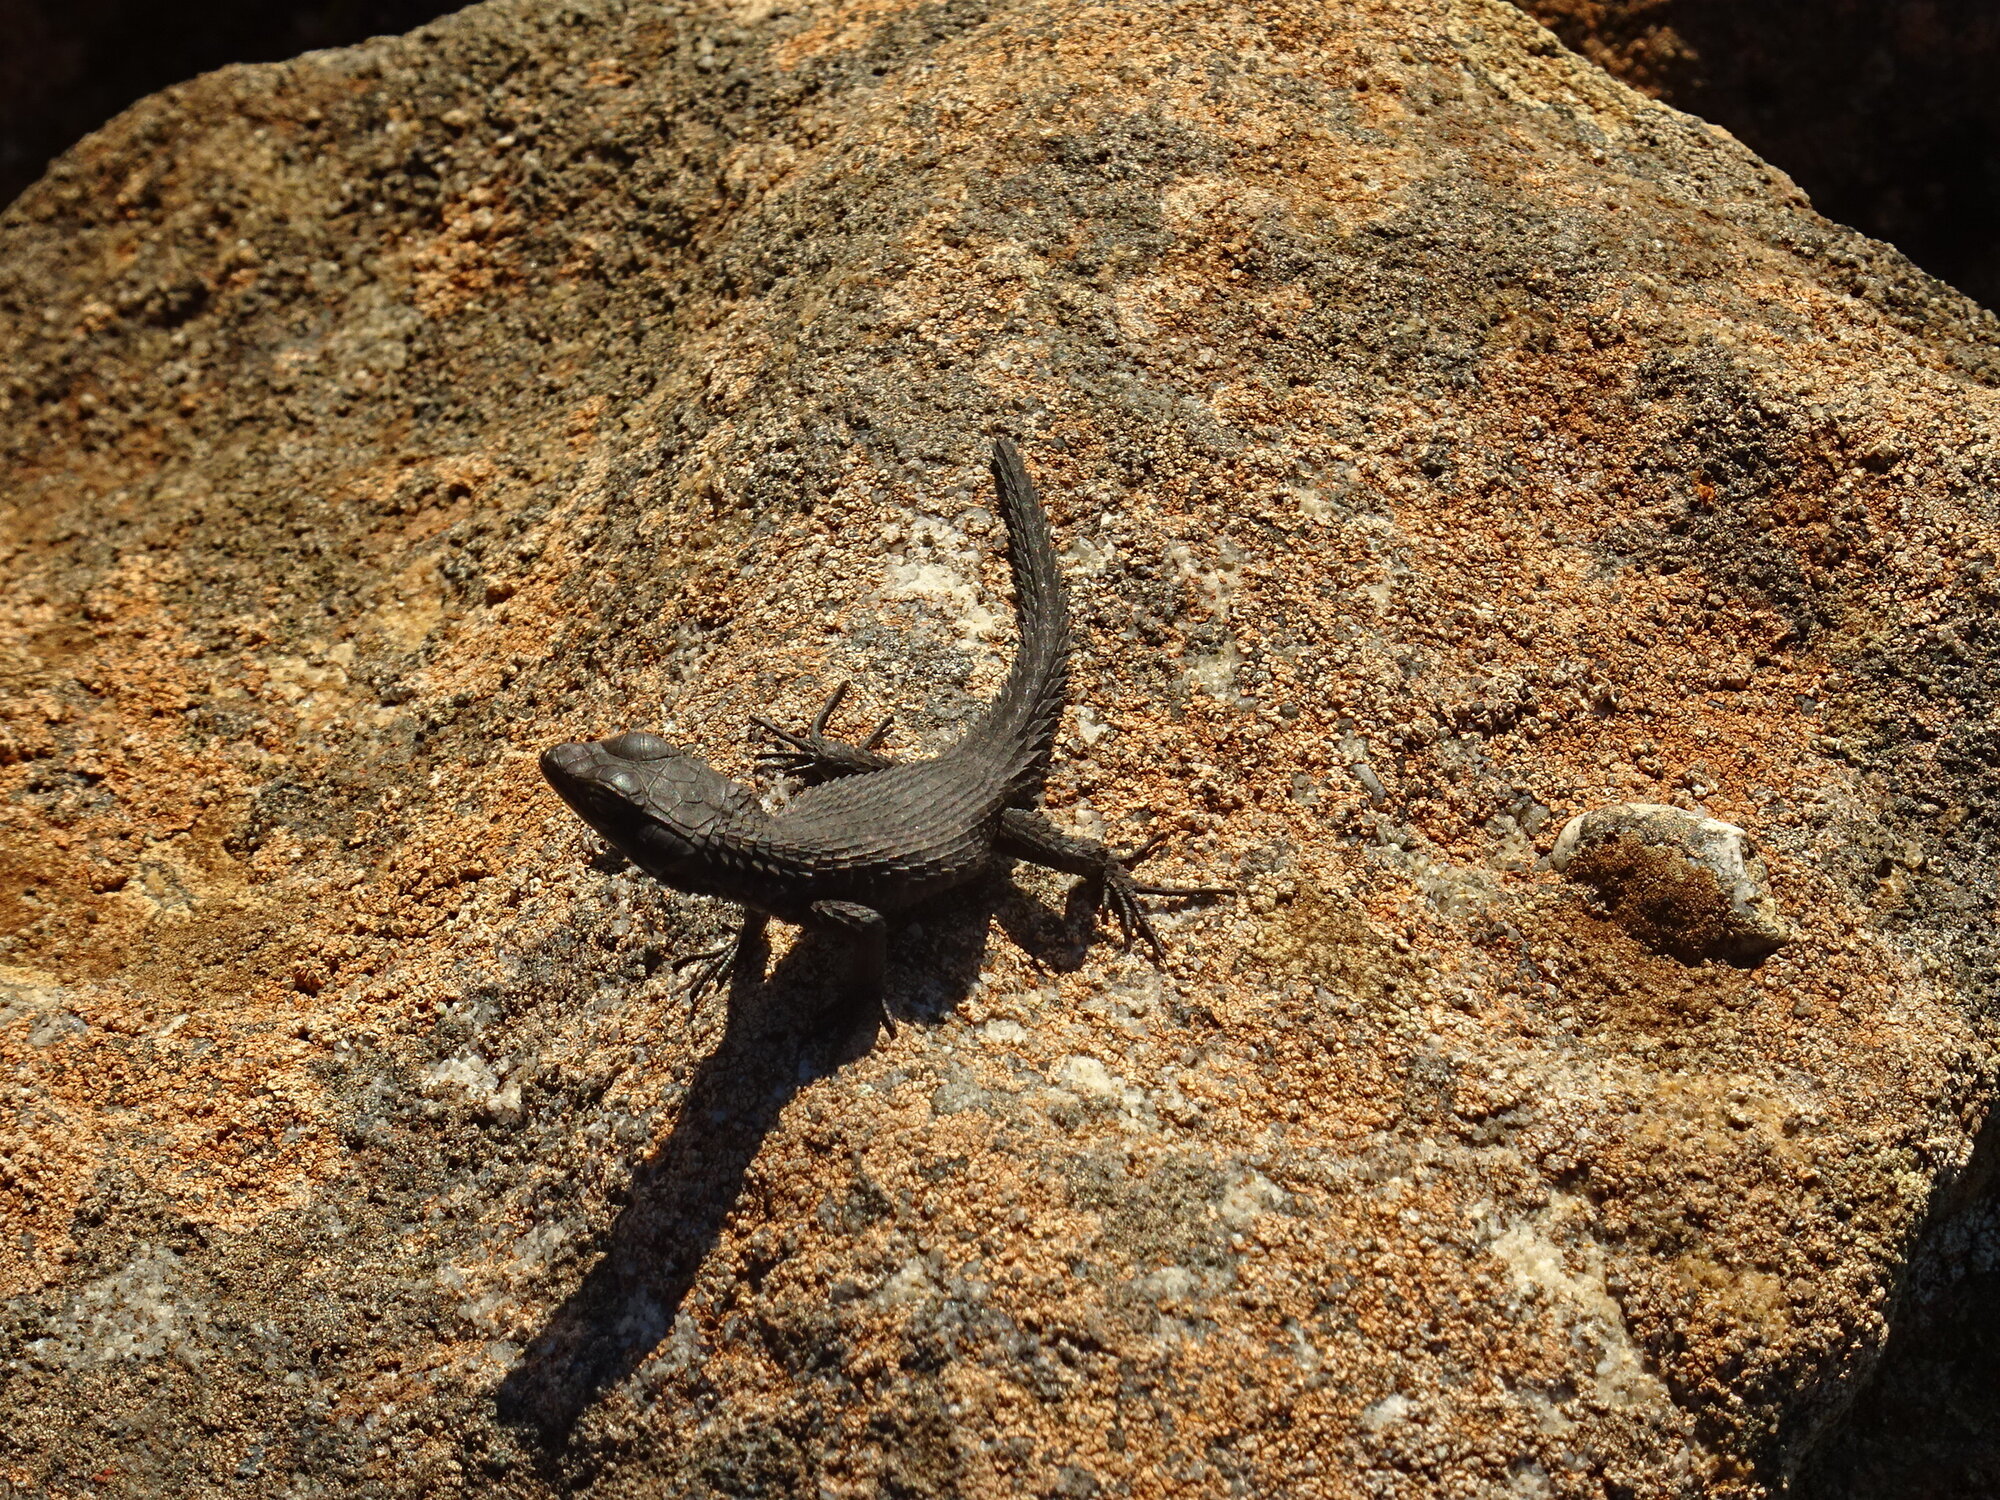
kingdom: Animalia
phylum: Chordata
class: Squamata
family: Cordylidae
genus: Cordylus
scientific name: Cordylus niger
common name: Black girdled lizard
